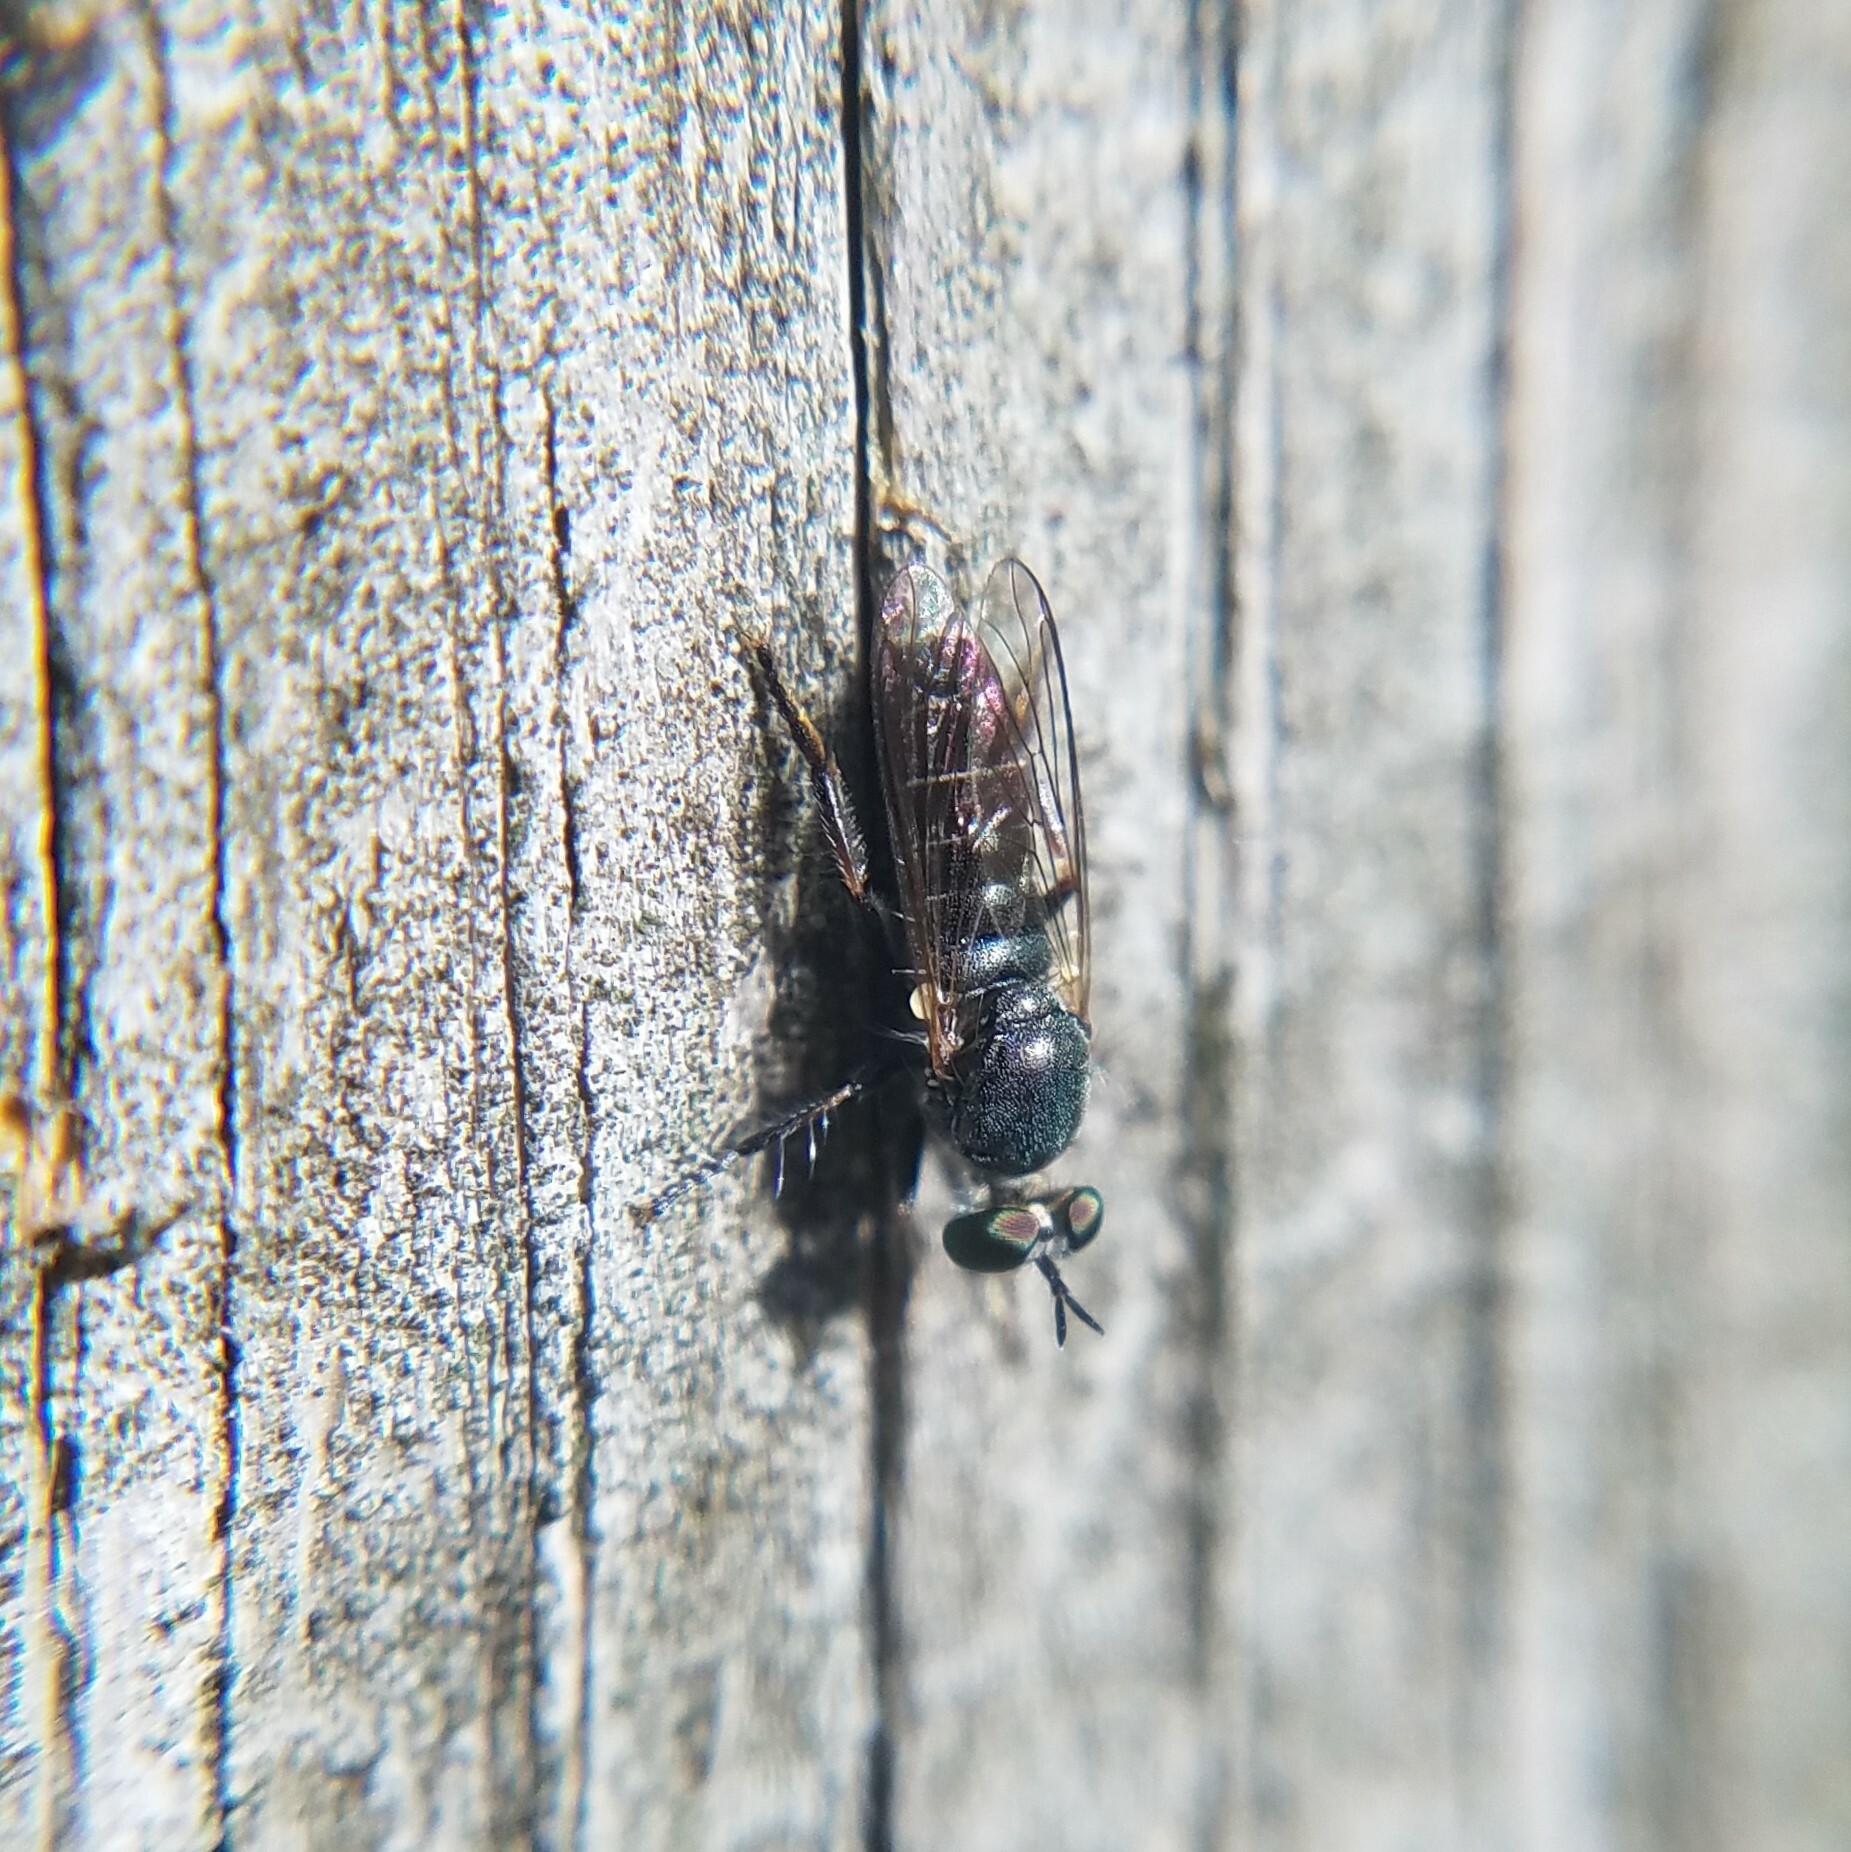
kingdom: Animalia
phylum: Arthropoda
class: Insecta
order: Diptera
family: Asilidae
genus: Atomosia
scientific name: Atomosia puella
